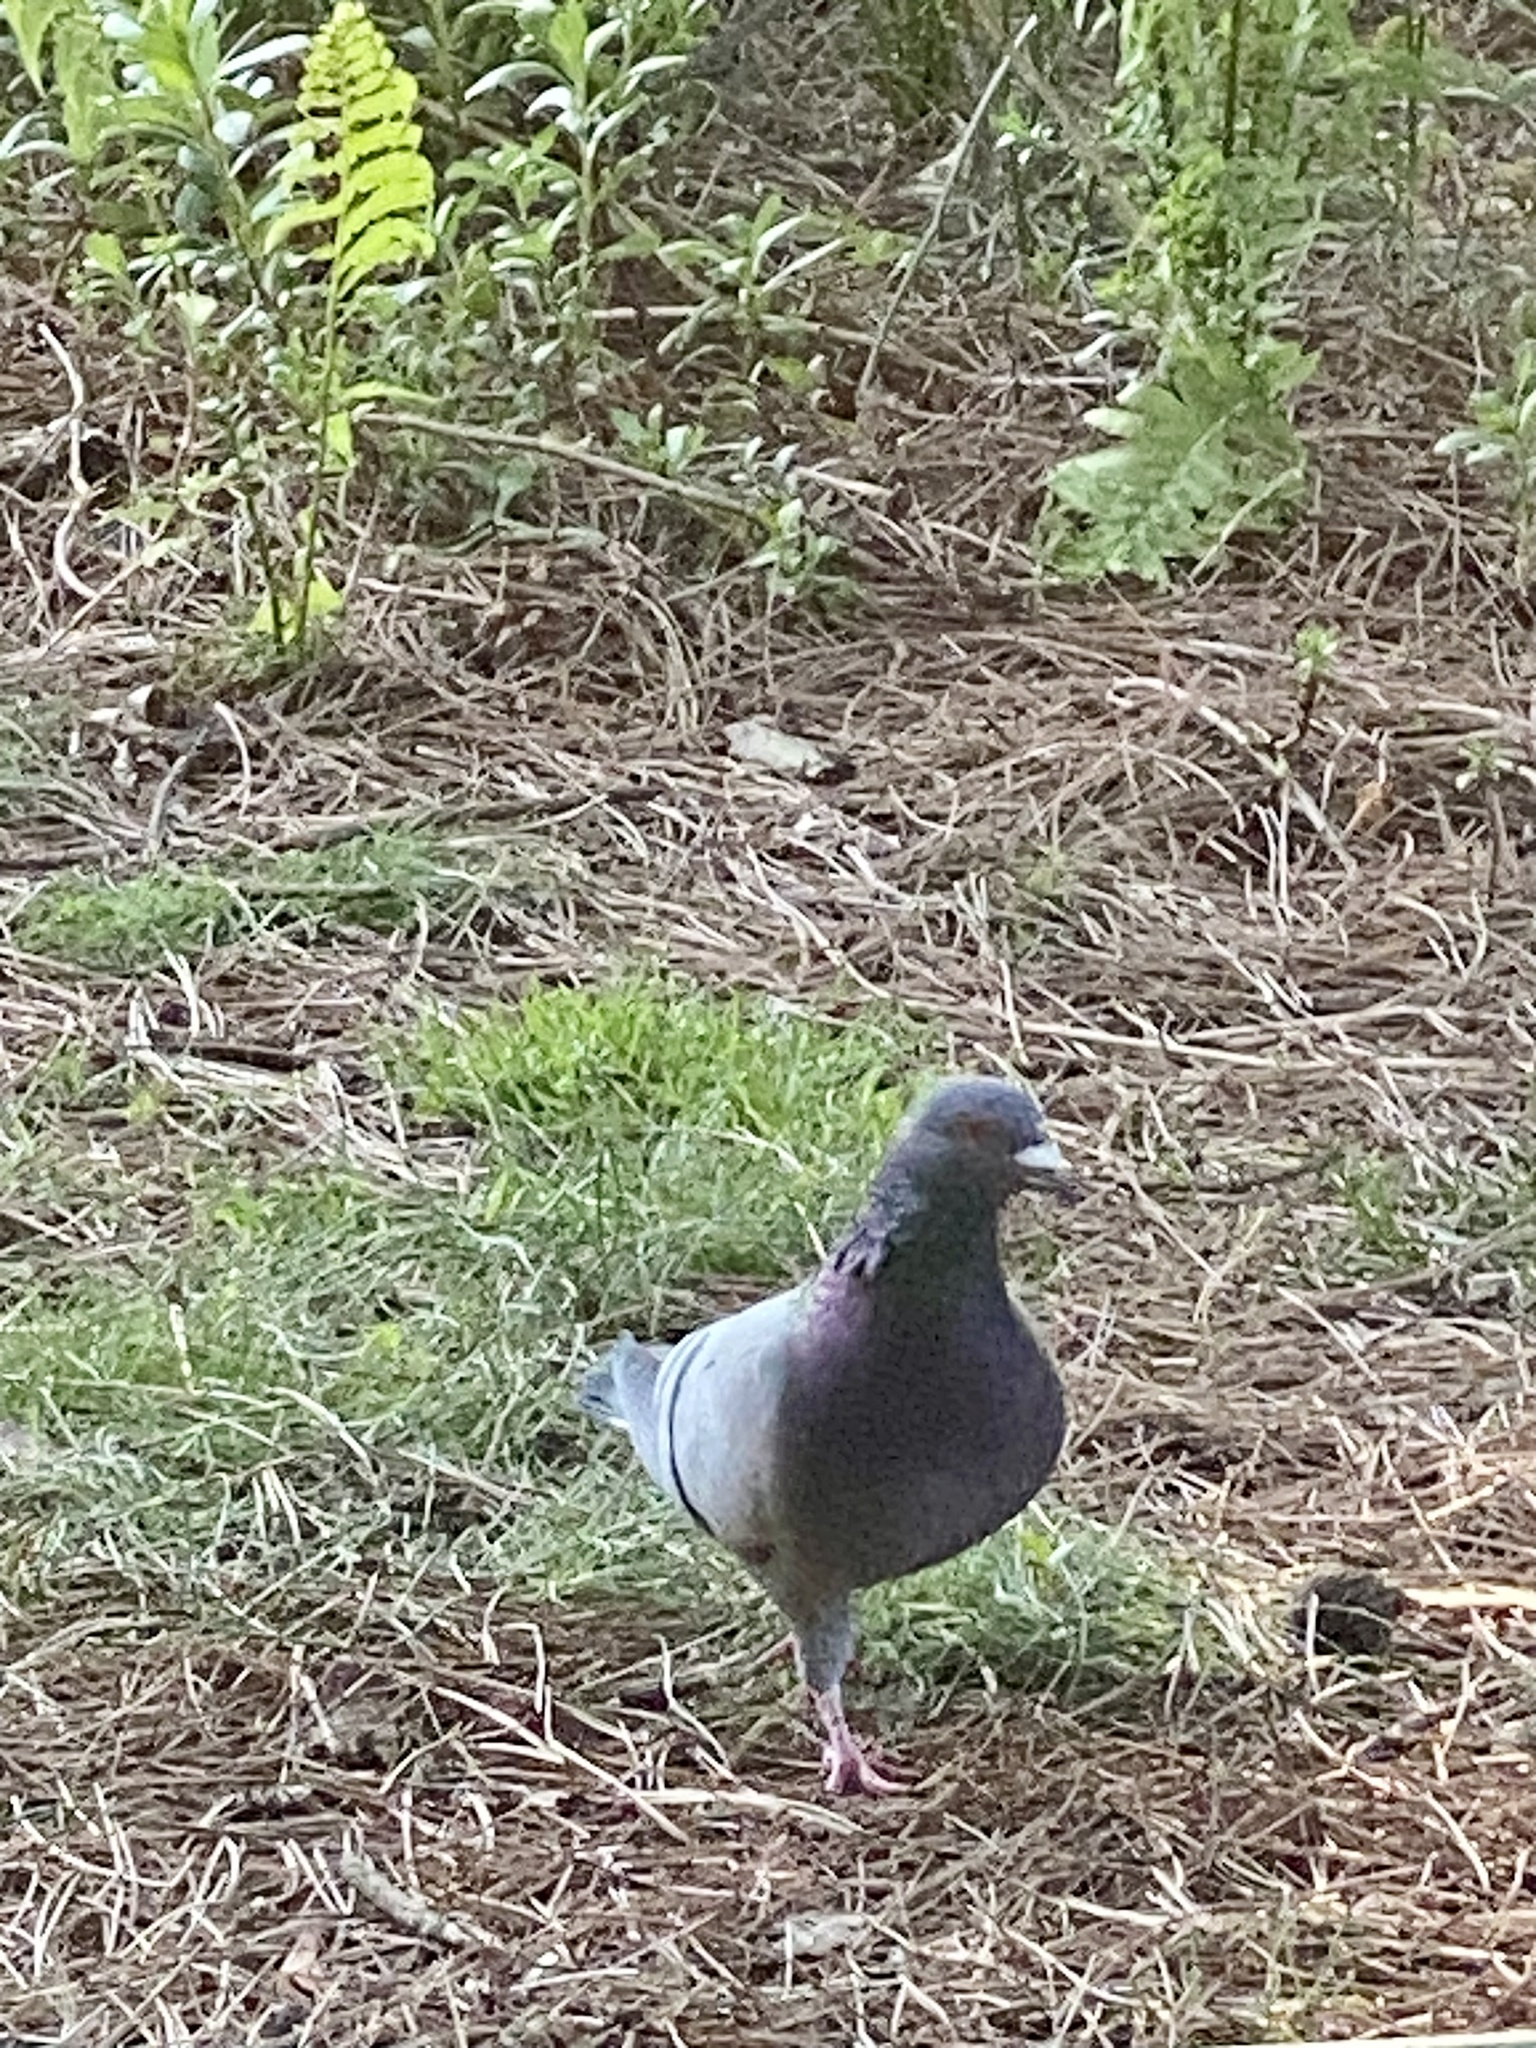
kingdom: Animalia
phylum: Chordata
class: Aves
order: Columbiformes
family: Columbidae
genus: Columba
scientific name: Columba livia
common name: Rock pigeon
